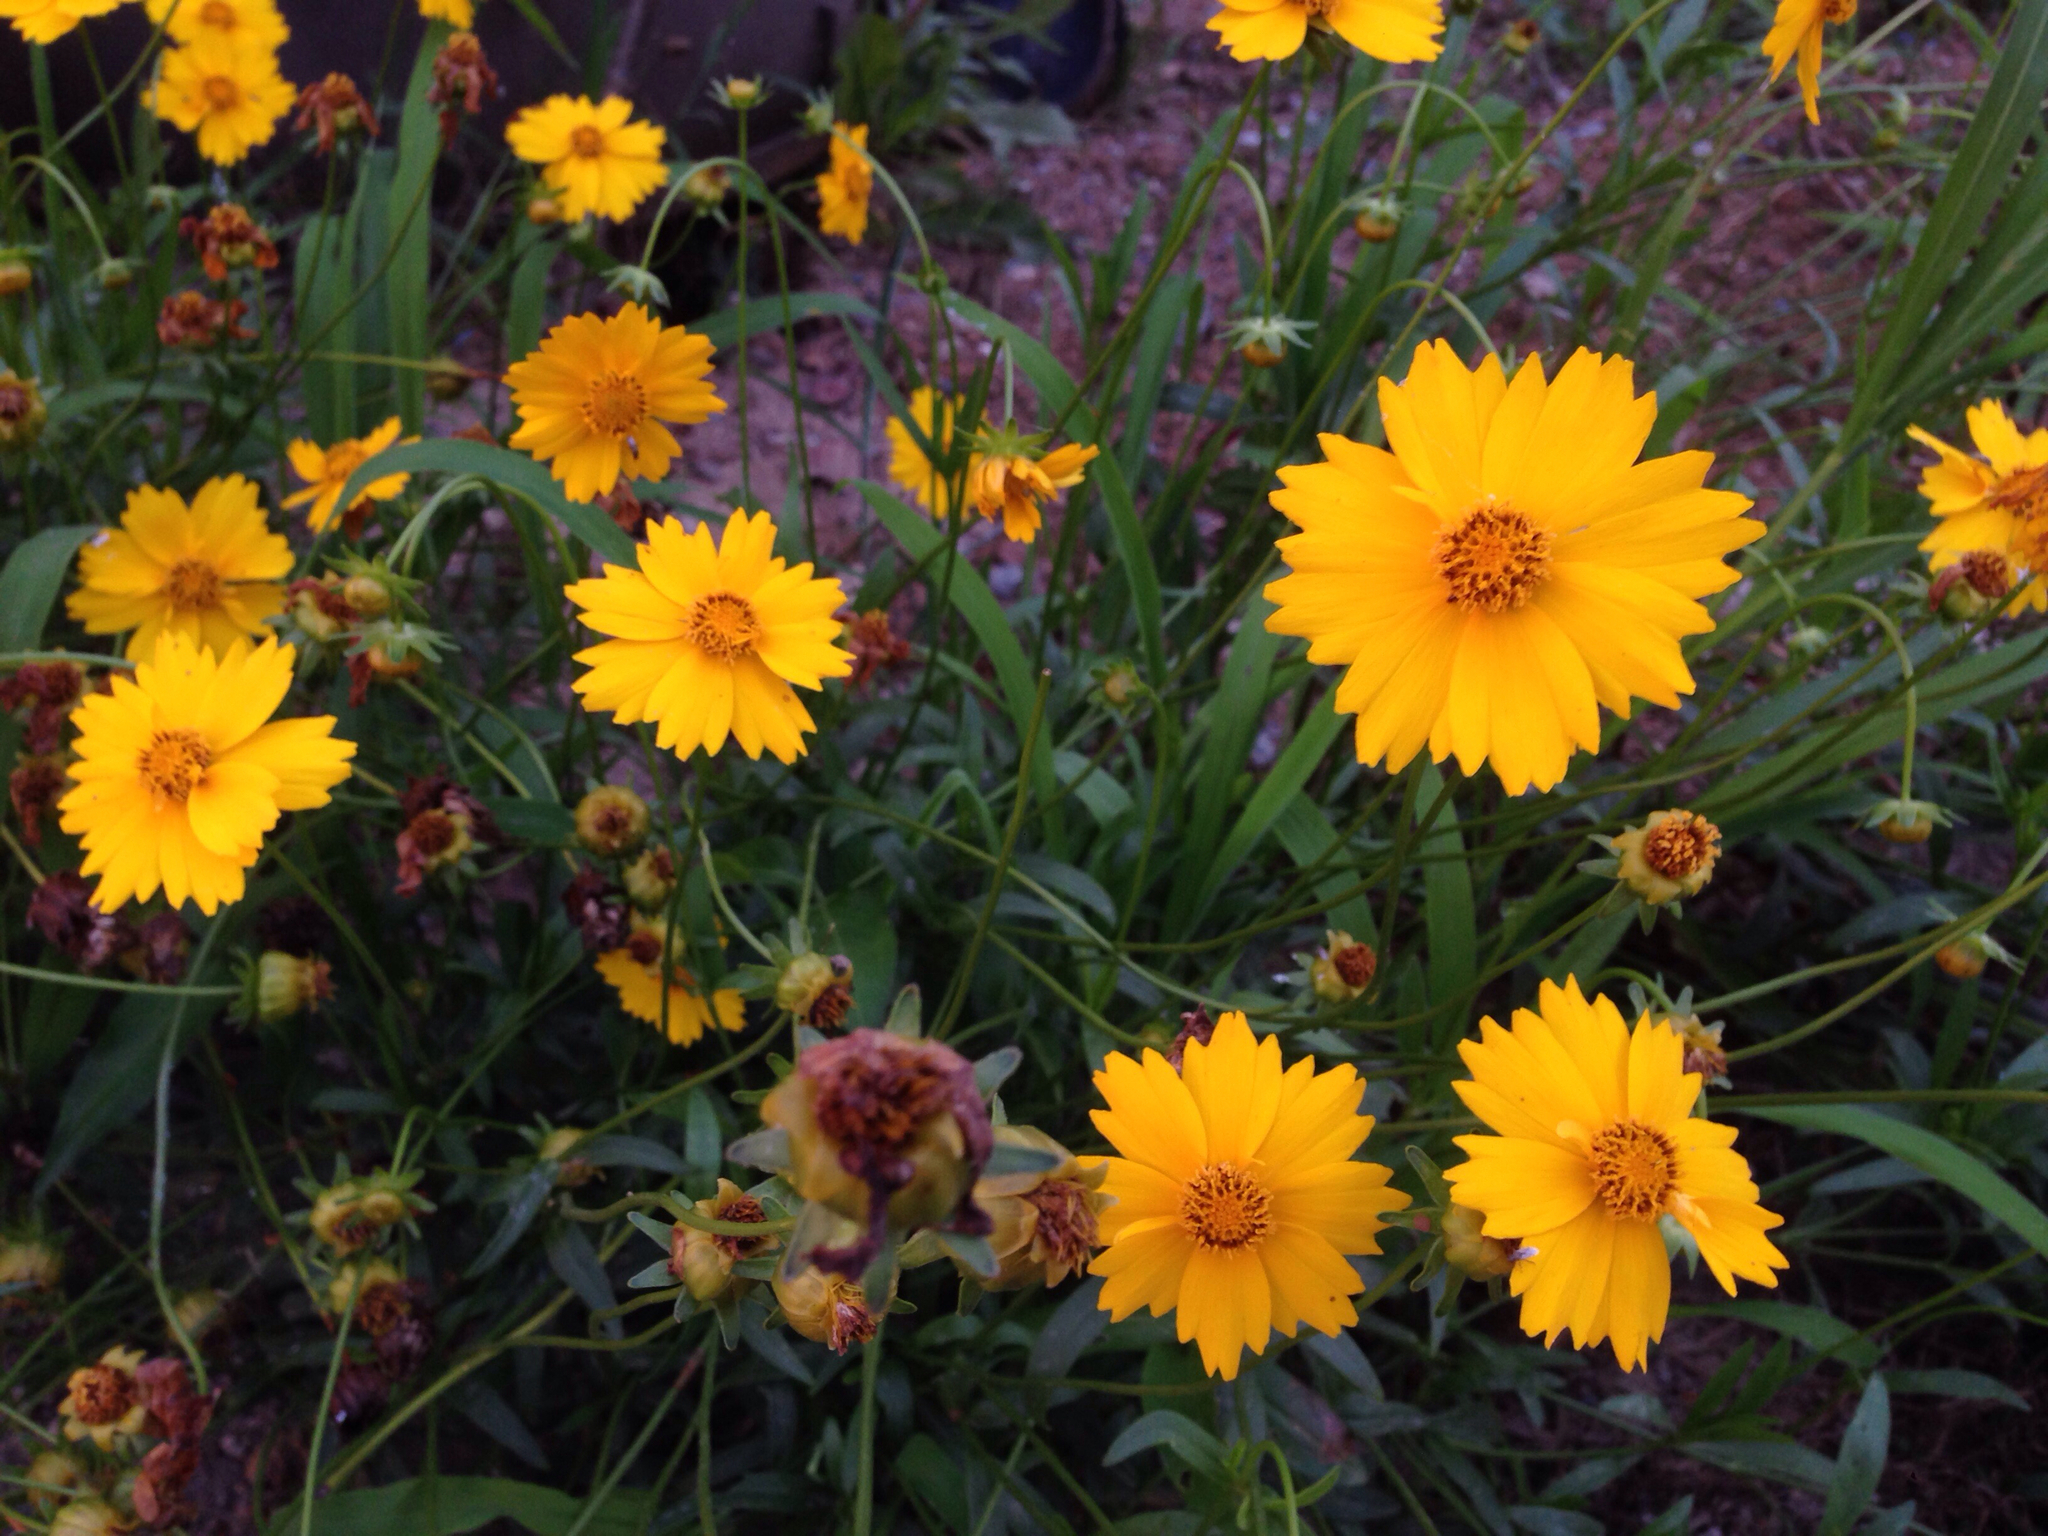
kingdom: Plantae
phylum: Tracheophyta
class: Magnoliopsida
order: Asterales
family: Asteraceae
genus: Coreopsis
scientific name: Coreopsis lanceolata
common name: Garden coreopsis
